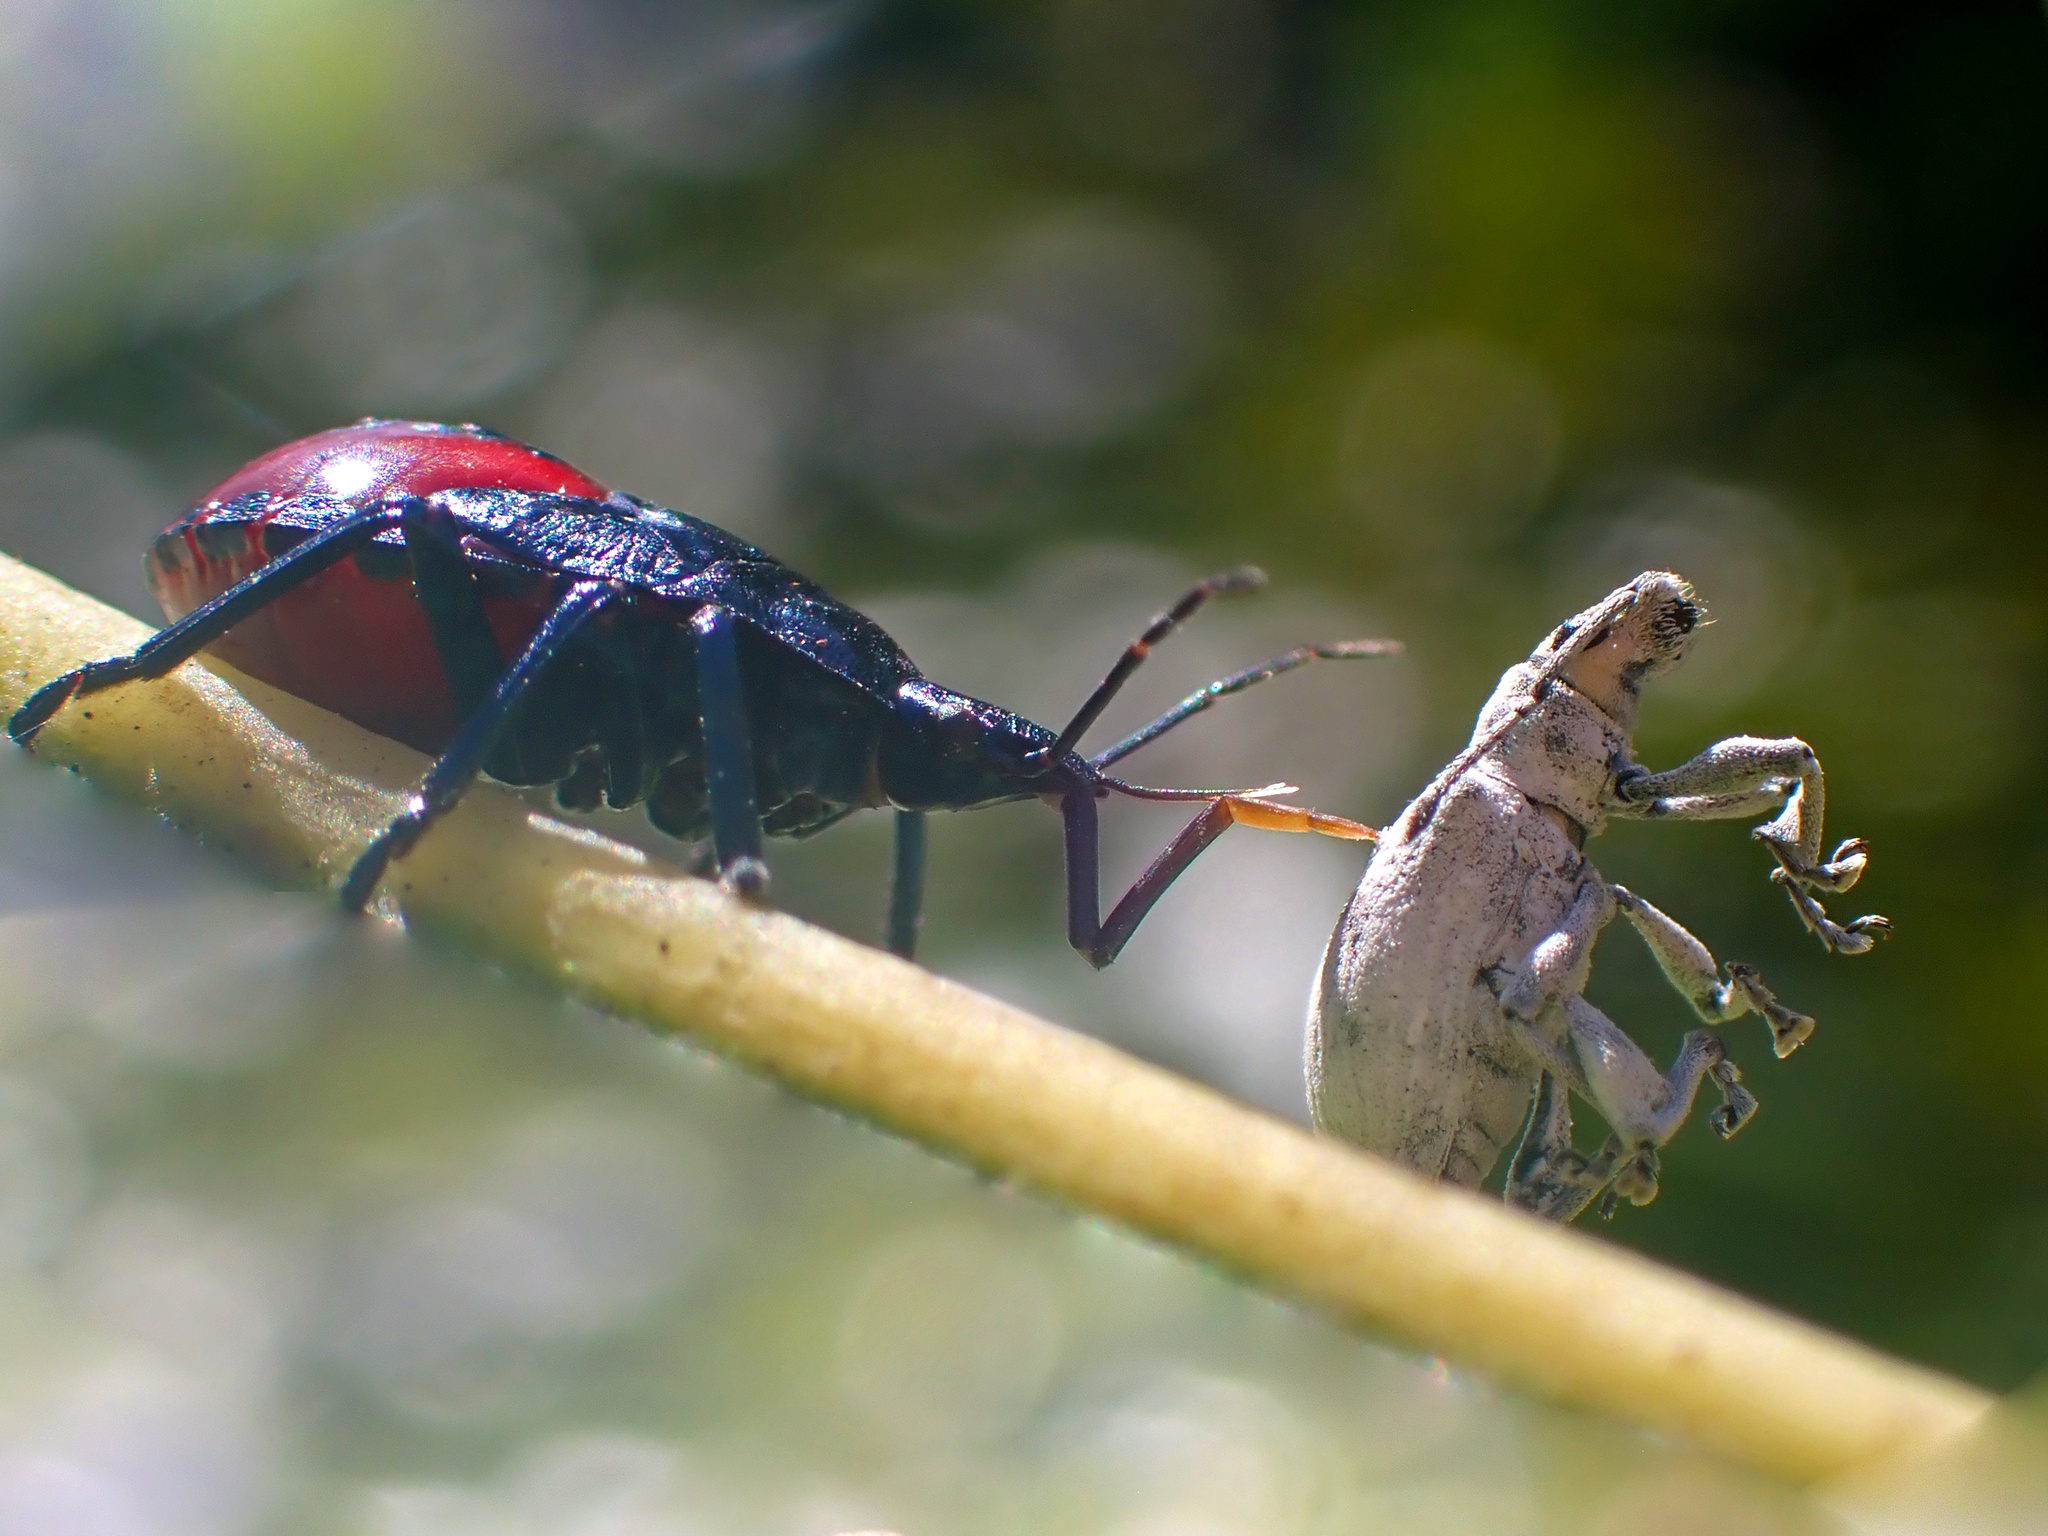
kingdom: Animalia
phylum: Arthropoda
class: Insecta
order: Hemiptera
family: Pentatomidae
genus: Euthyrhynchus
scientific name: Euthyrhynchus floridanus
